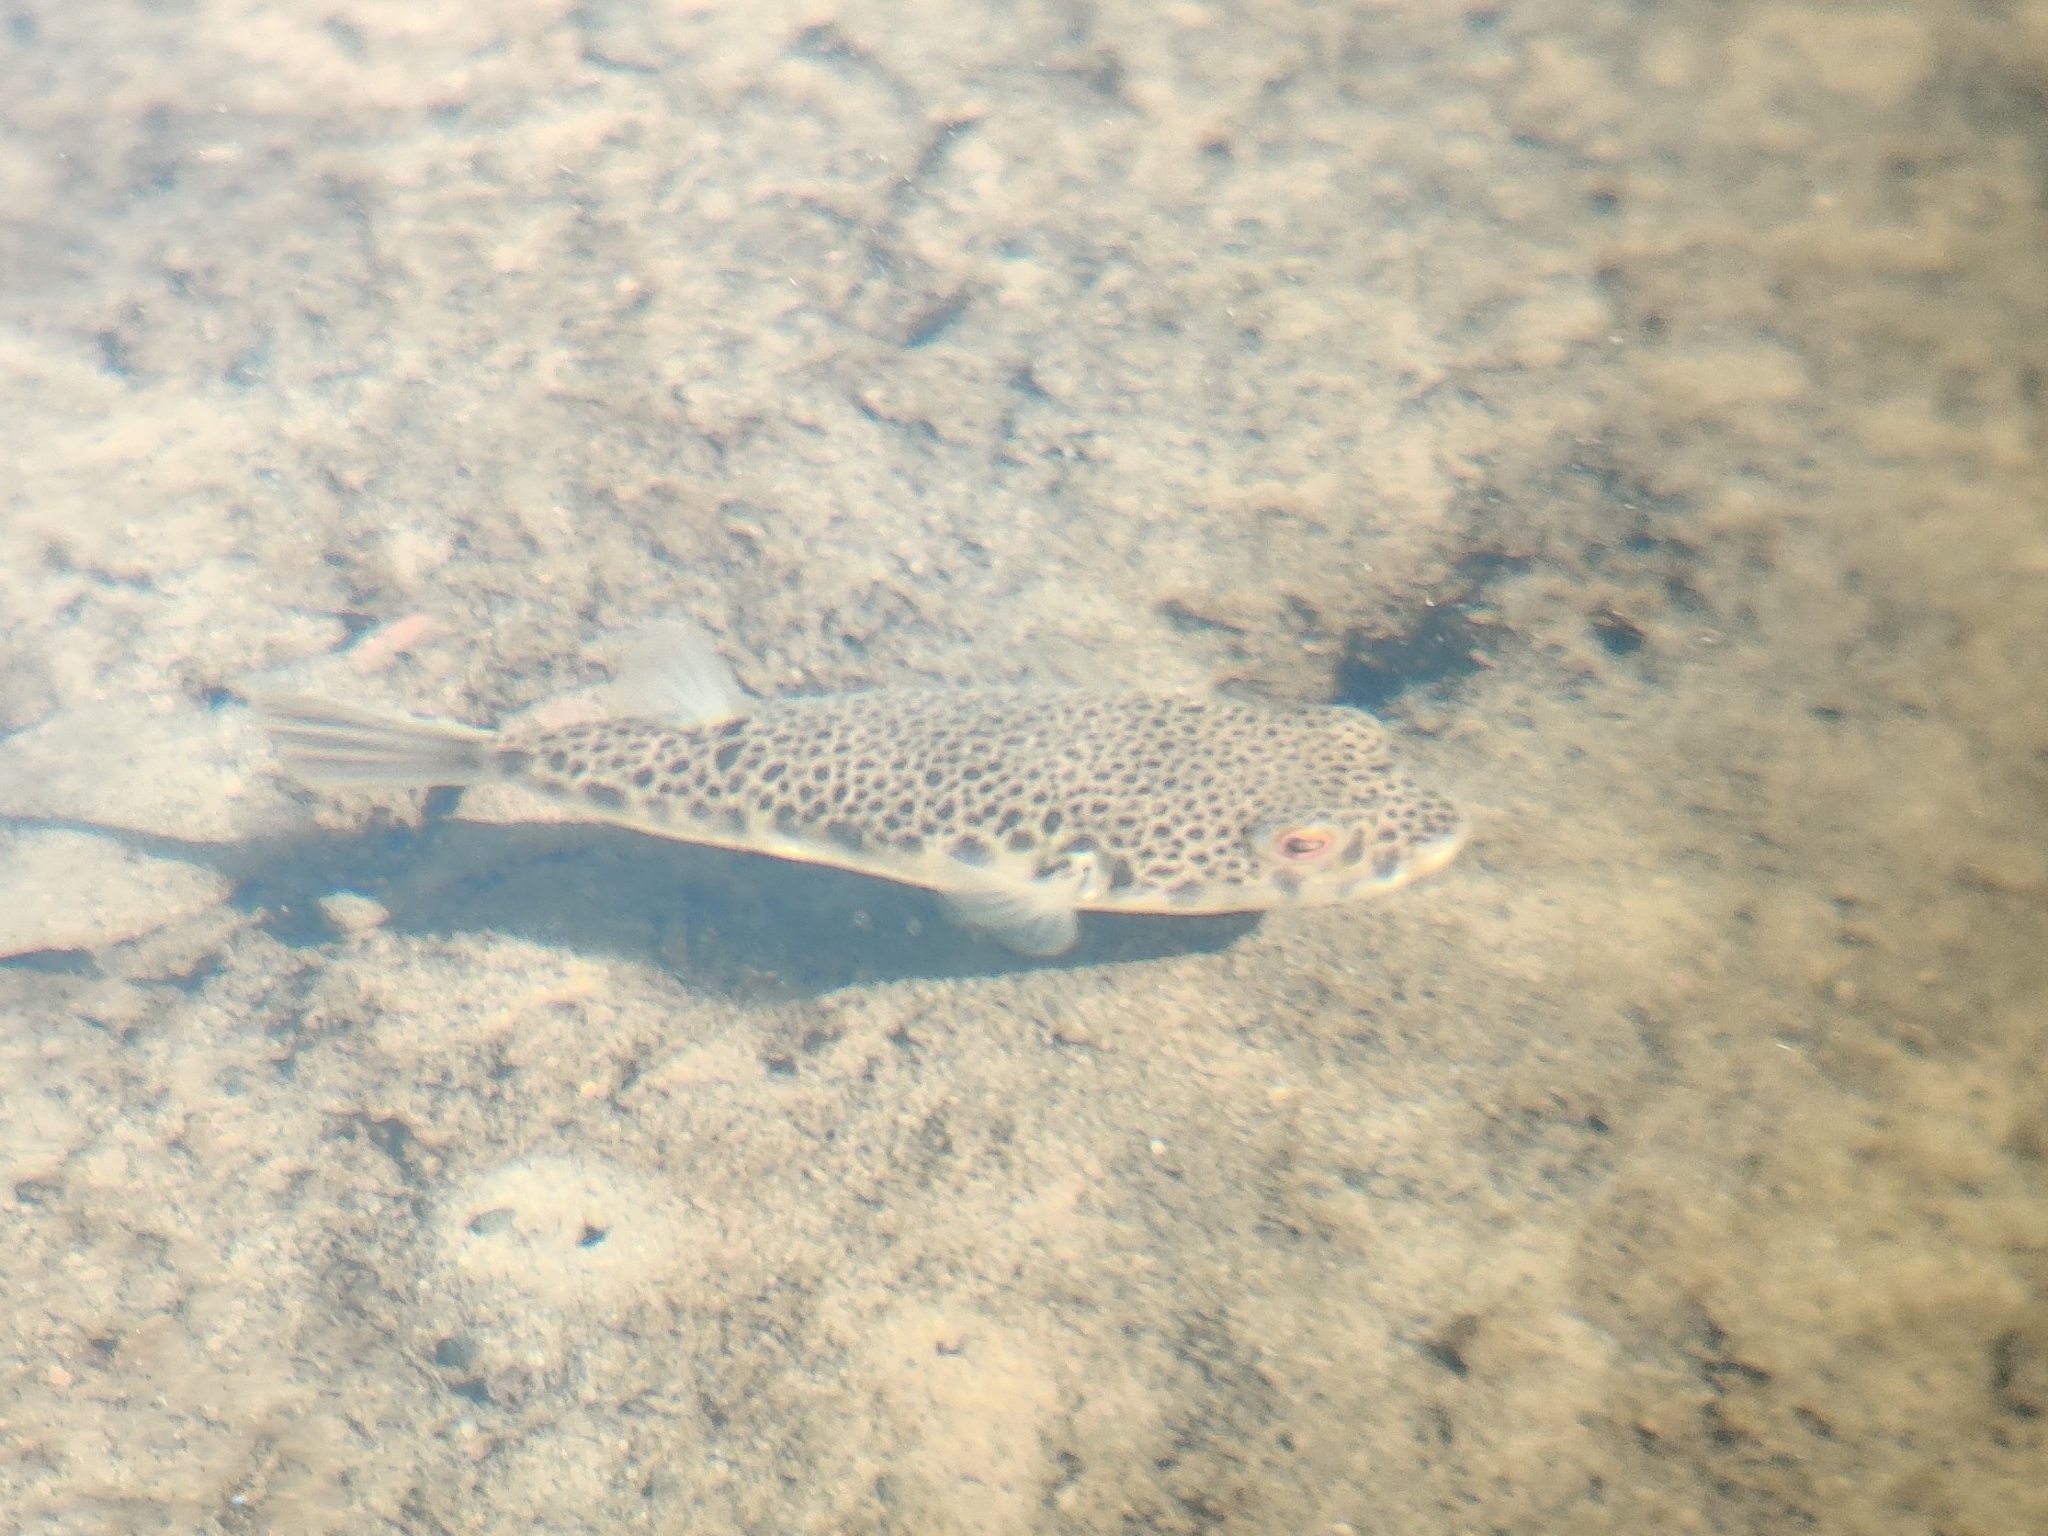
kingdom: Animalia
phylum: Chordata
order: Tetraodontiformes
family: Tetraodontidae
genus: Tetractenos
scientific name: Tetractenos hamiltoni
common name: Common toadfish
